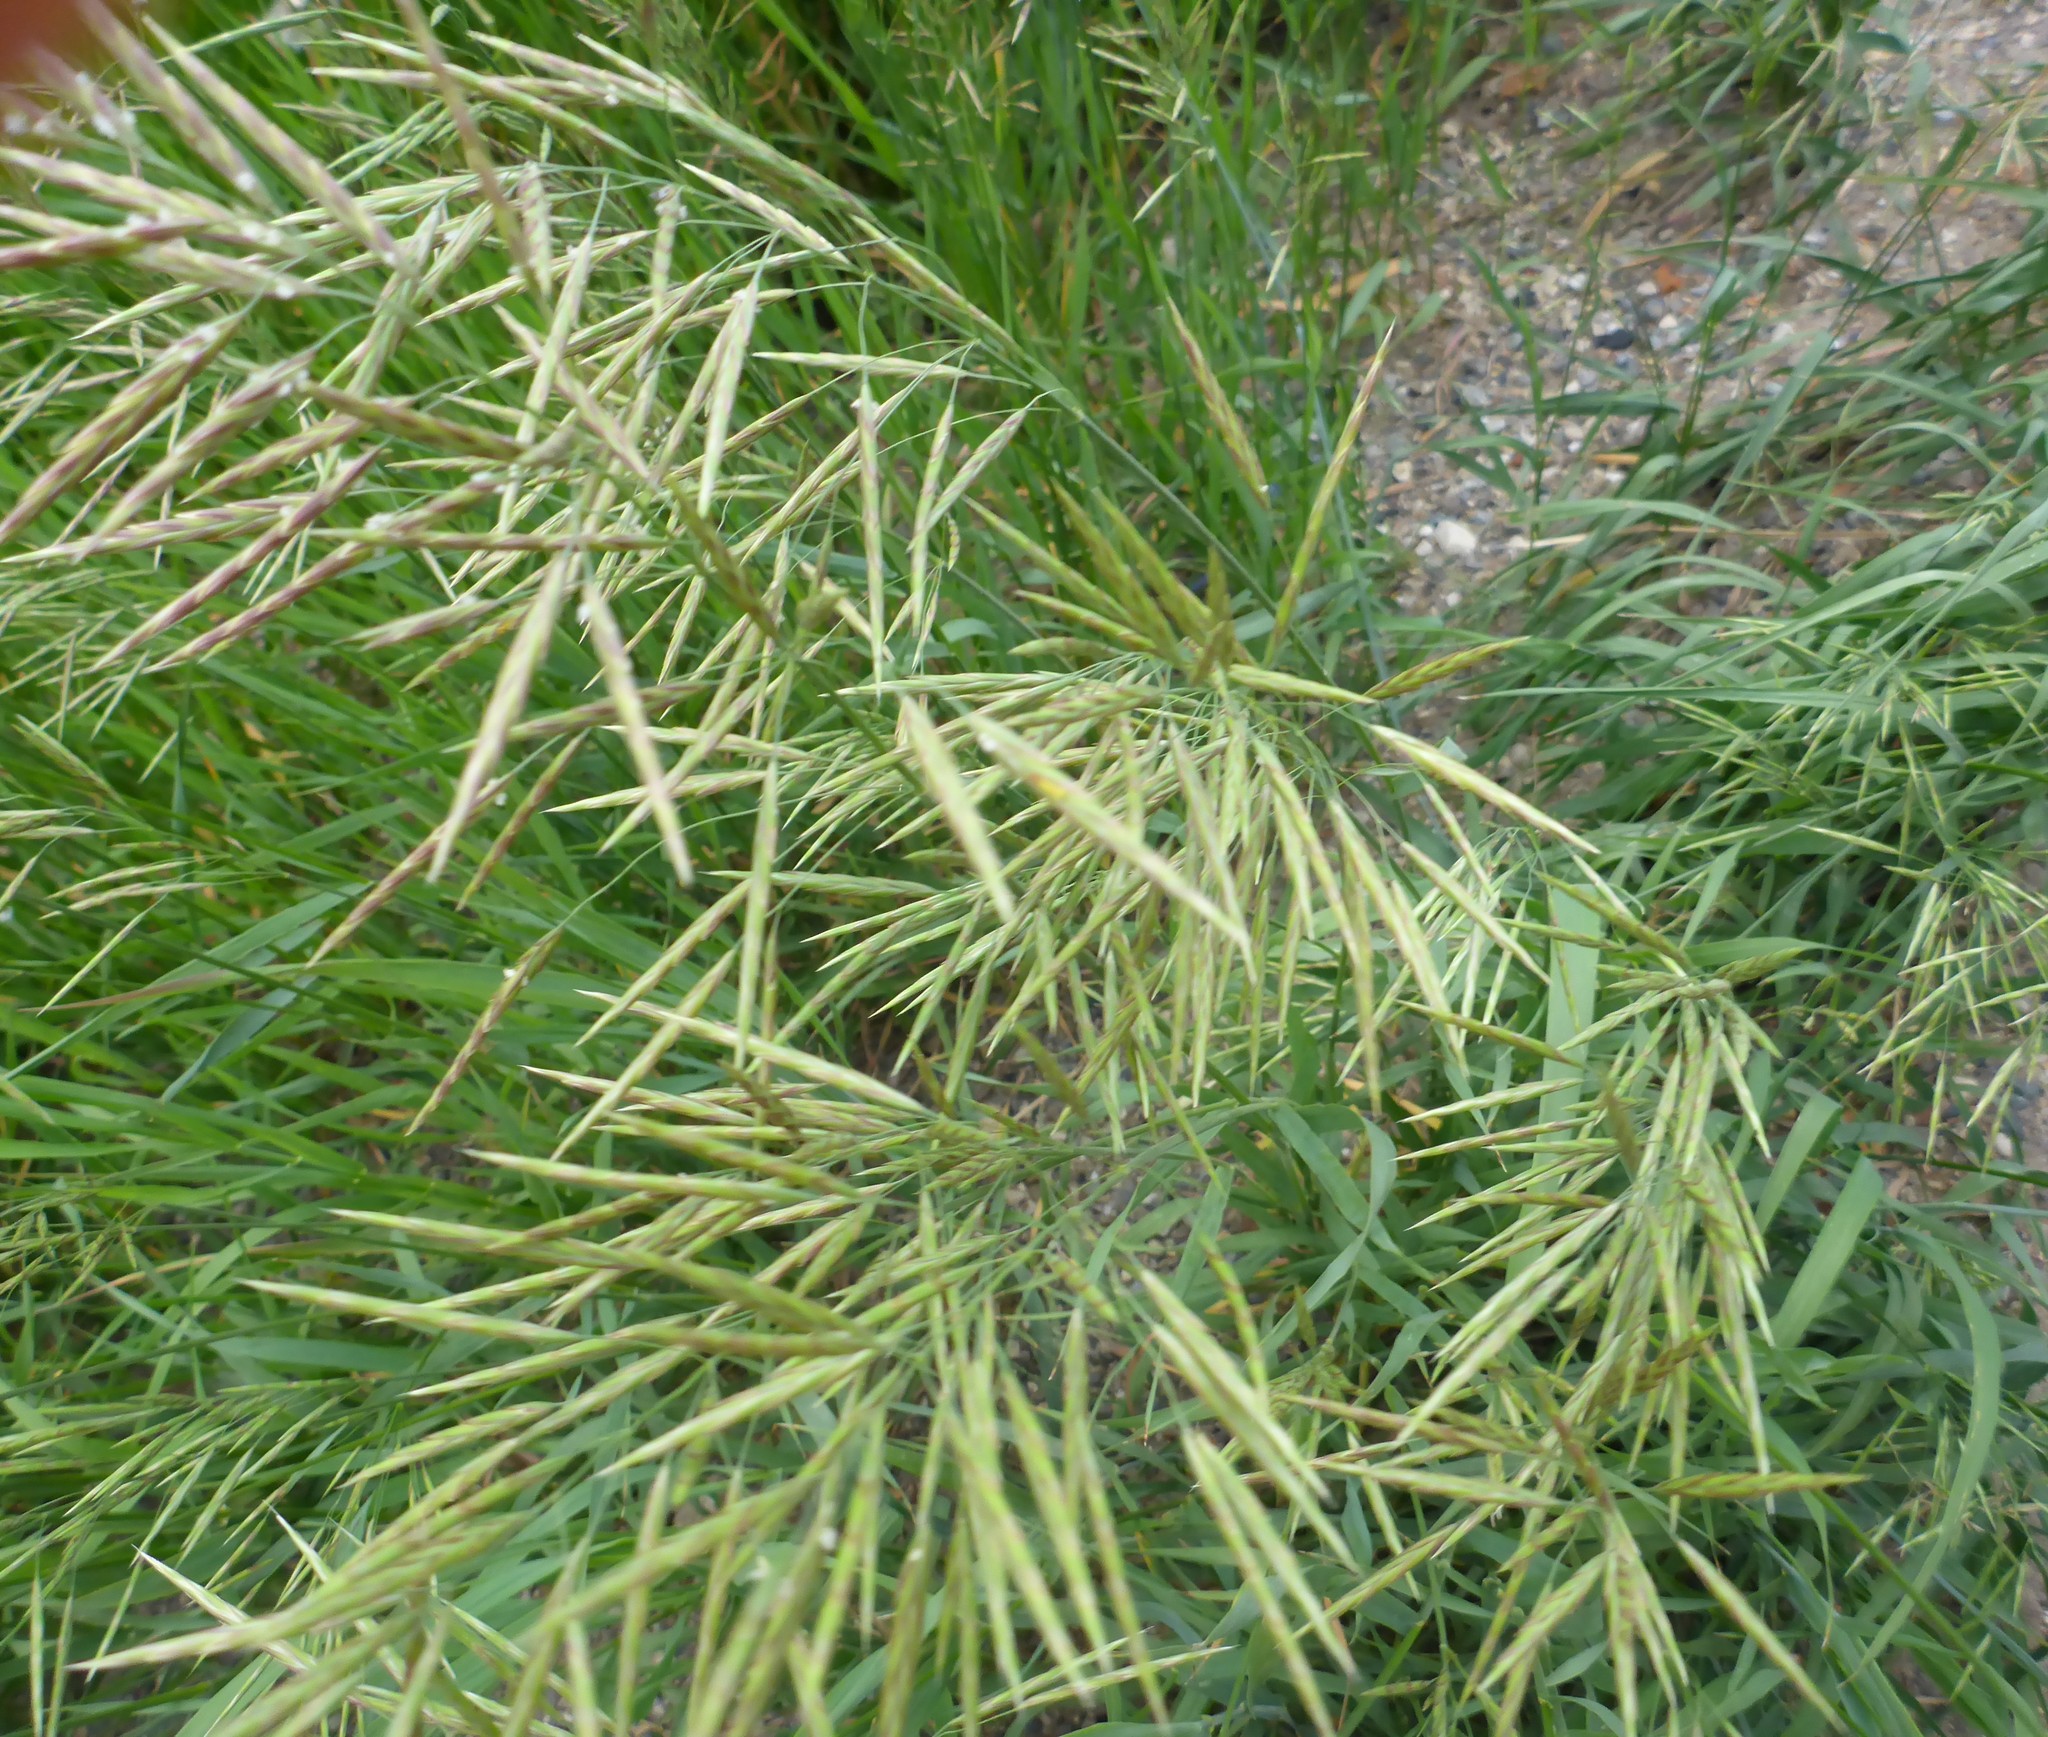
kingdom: Plantae
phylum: Tracheophyta
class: Liliopsida
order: Poales
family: Poaceae
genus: Bromus
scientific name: Bromus inermis
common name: Smooth brome
